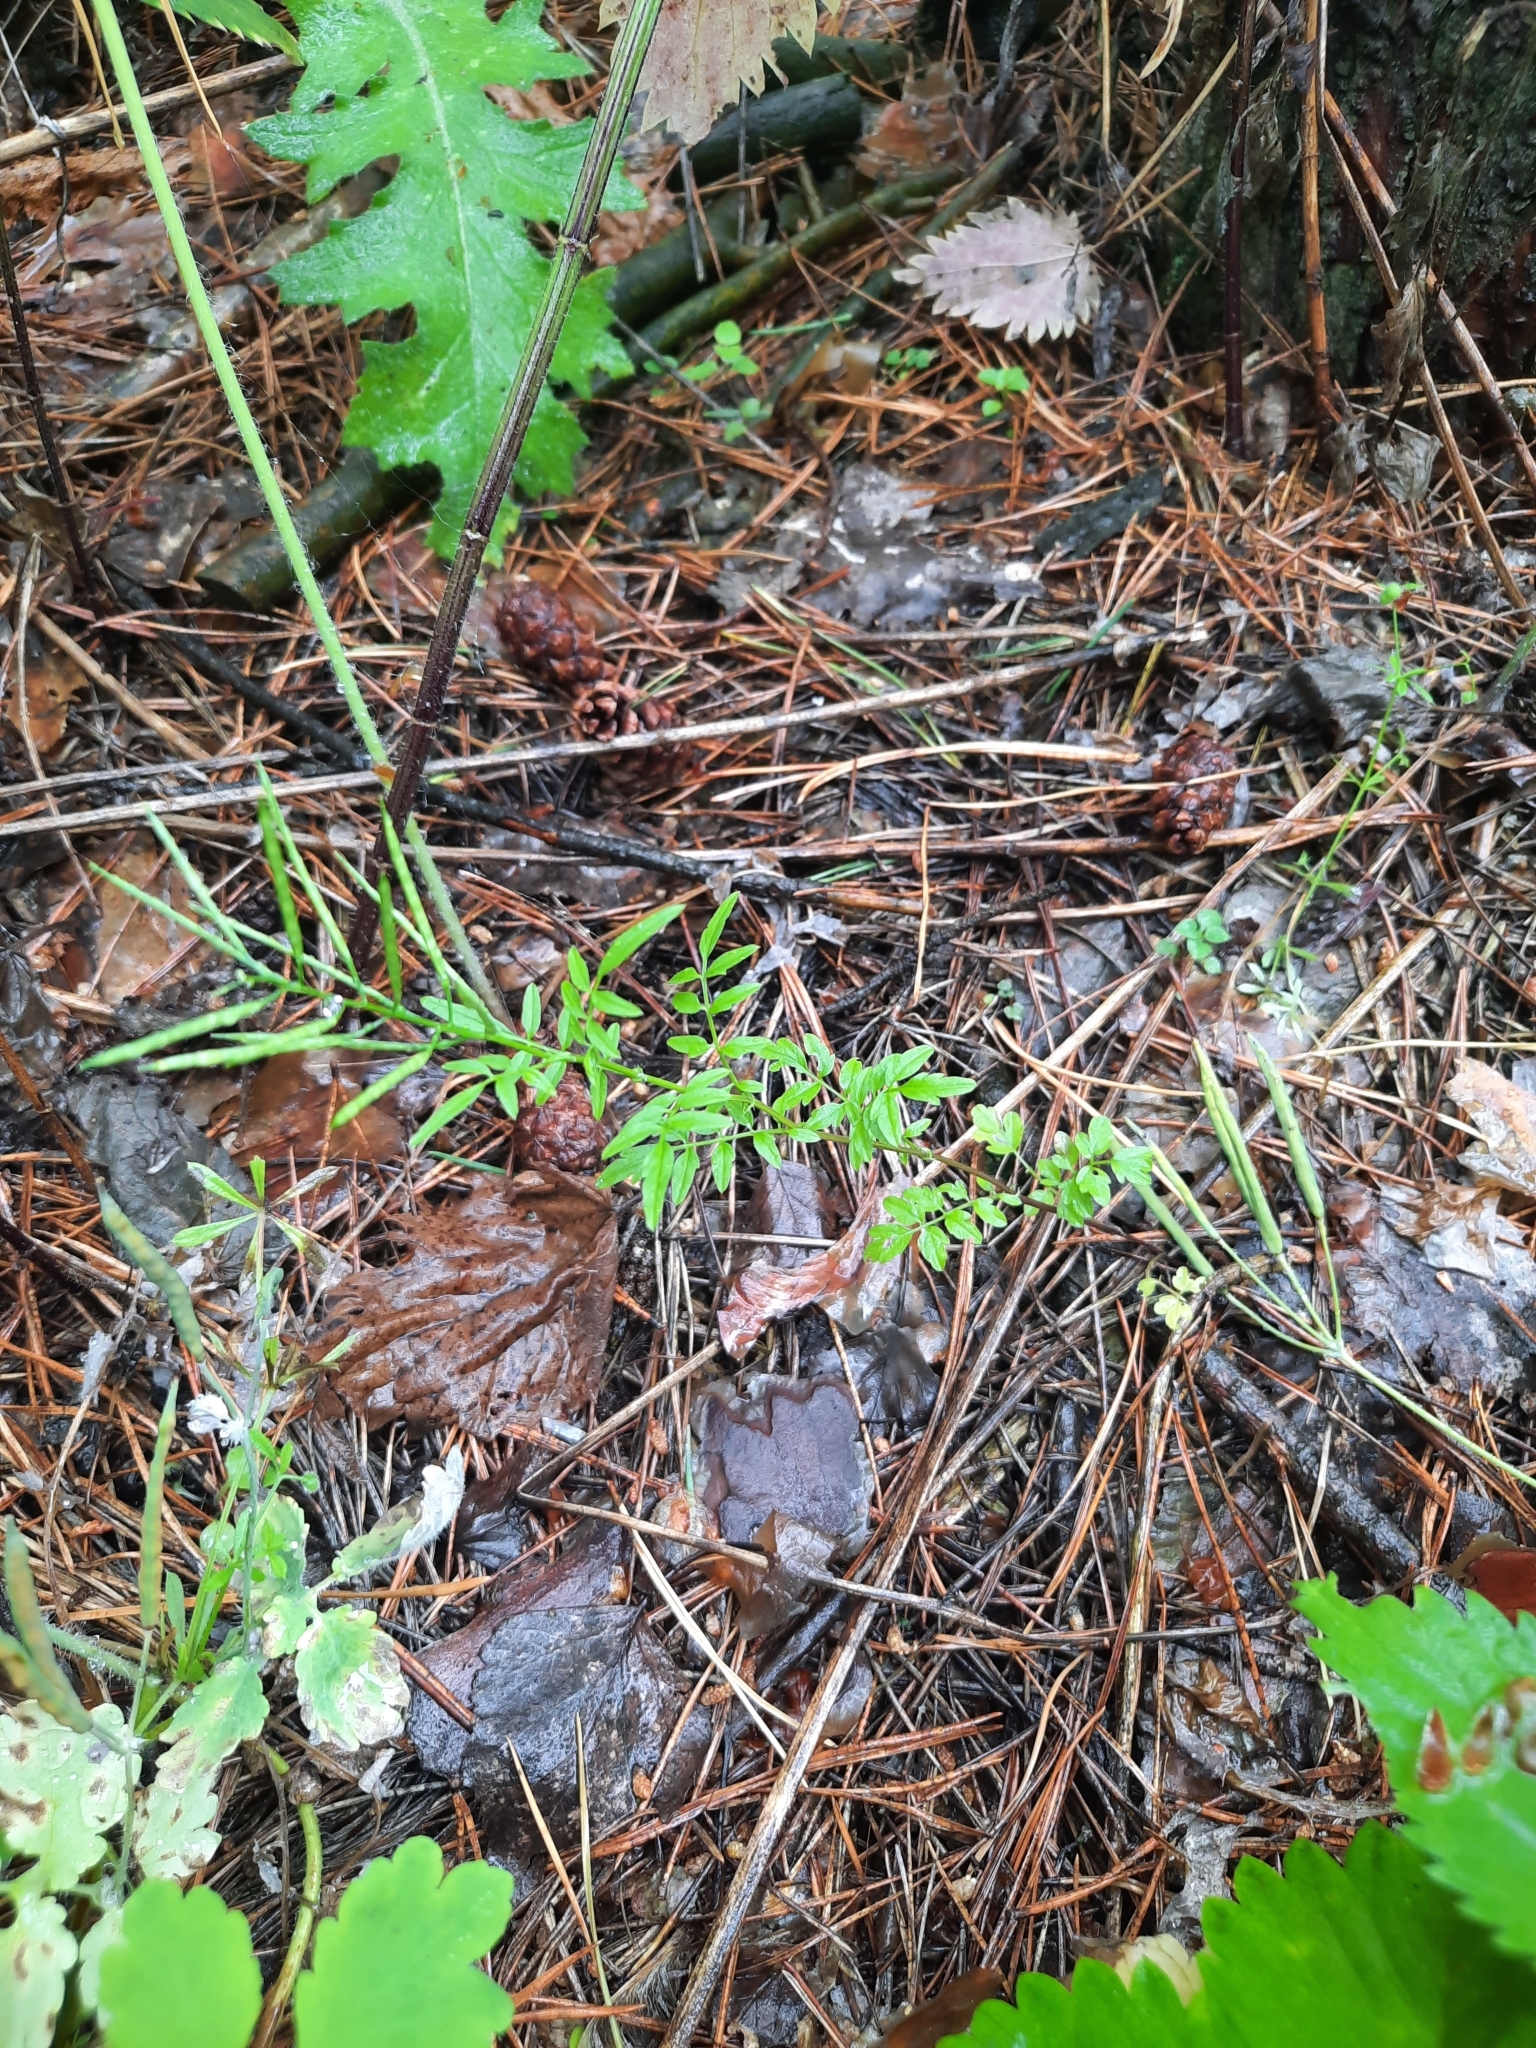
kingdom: Plantae
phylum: Tracheophyta
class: Magnoliopsida
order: Brassicales
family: Brassicaceae
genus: Cardamine
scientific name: Cardamine impatiens
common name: Narrow-leaved bitter-cress
